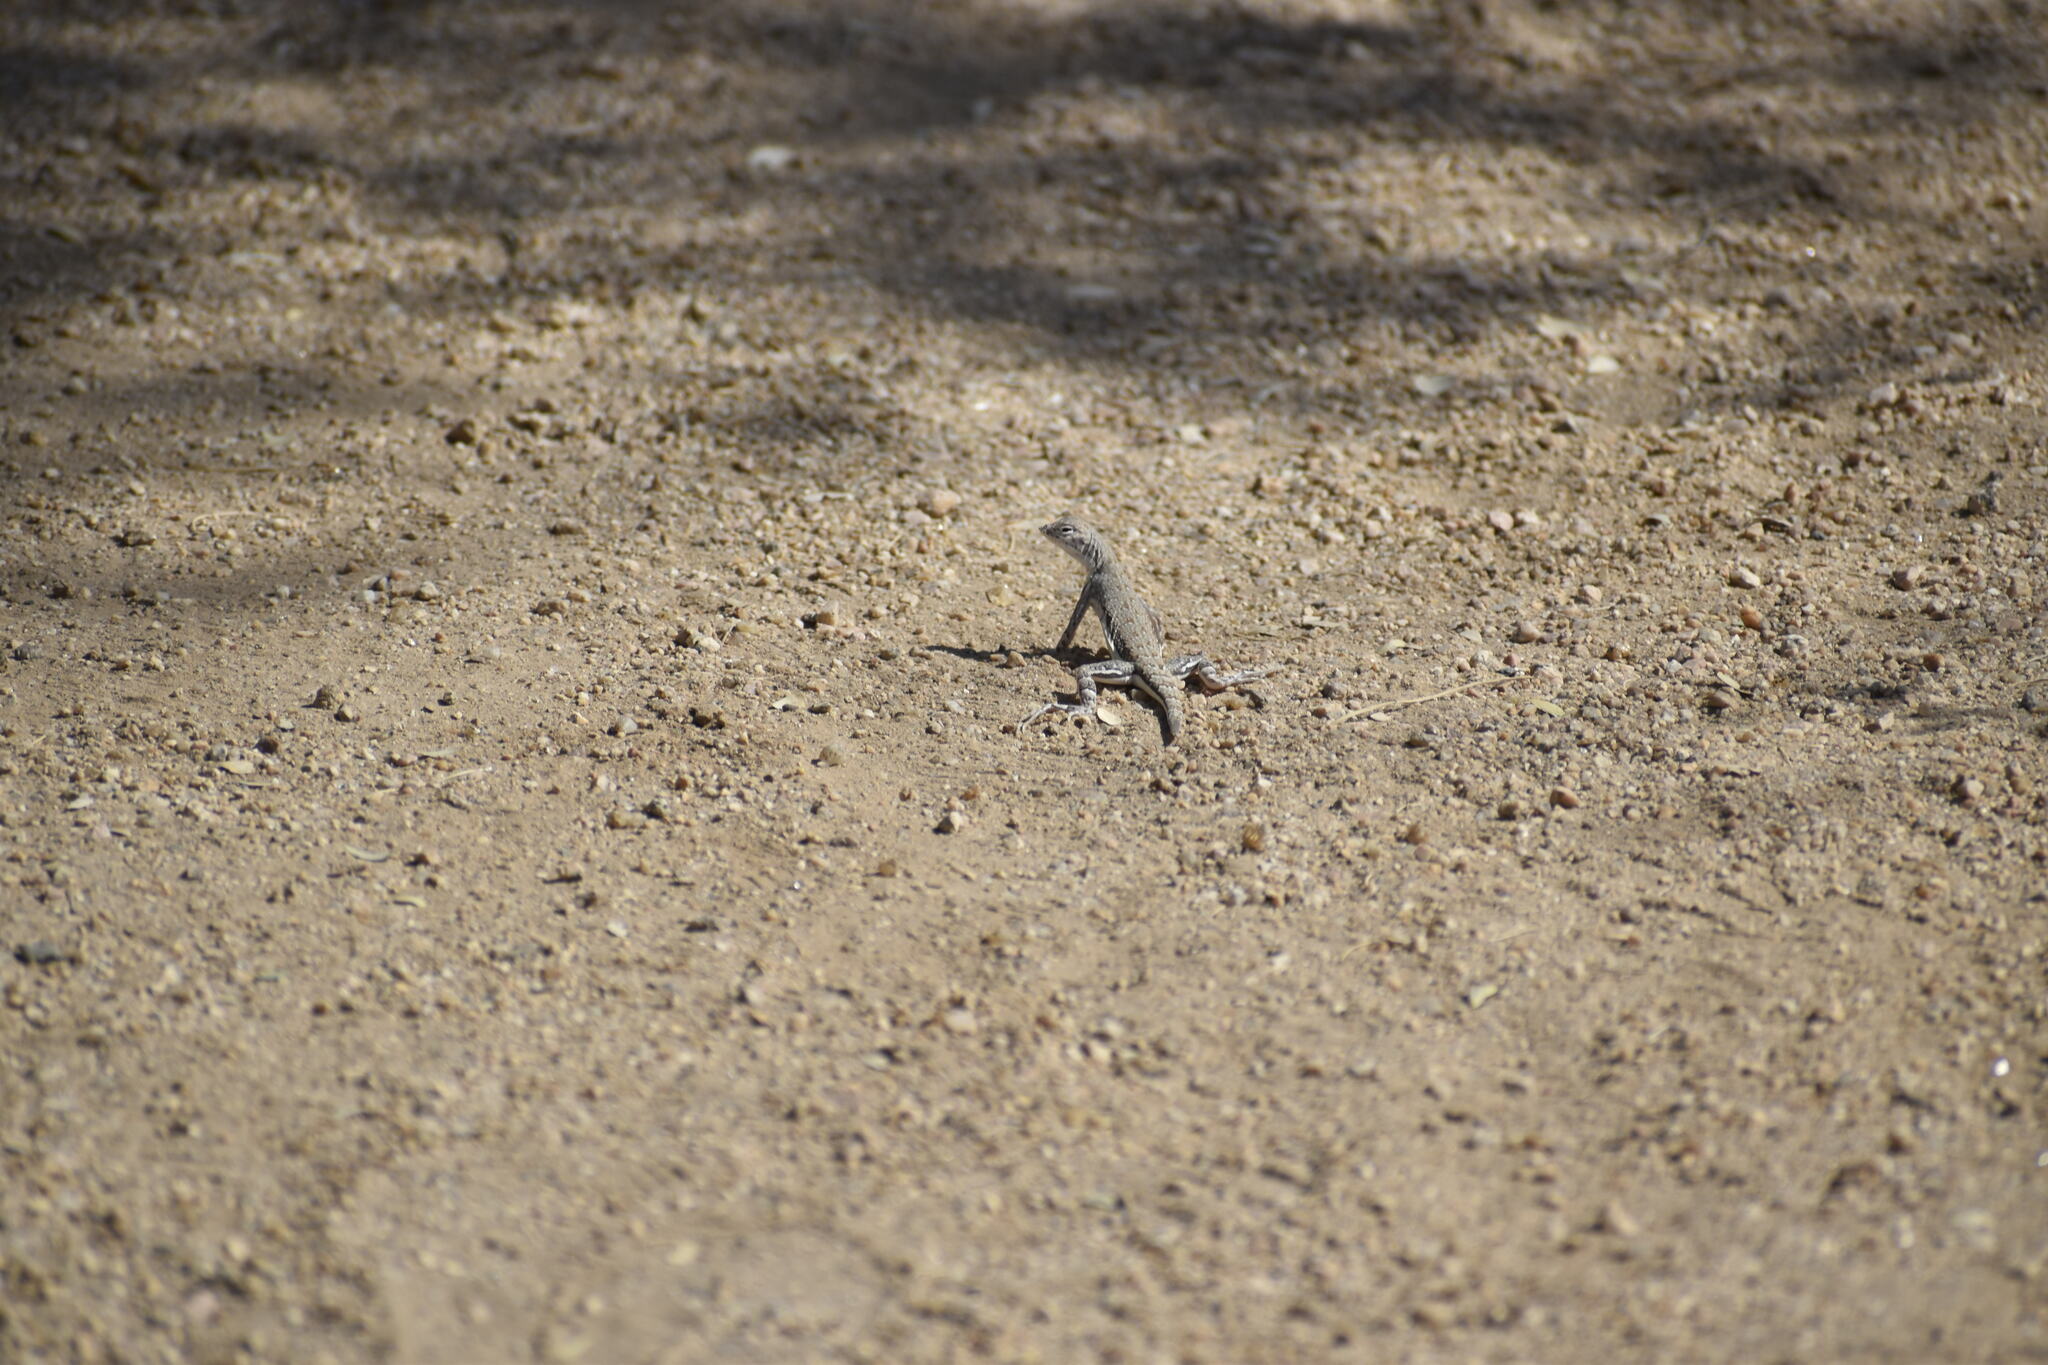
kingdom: Animalia
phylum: Chordata
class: Squamata
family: Phrynosomatidae
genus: Callisaurus
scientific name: Callisaurus draconoides
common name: Zebra-tailed lizard
